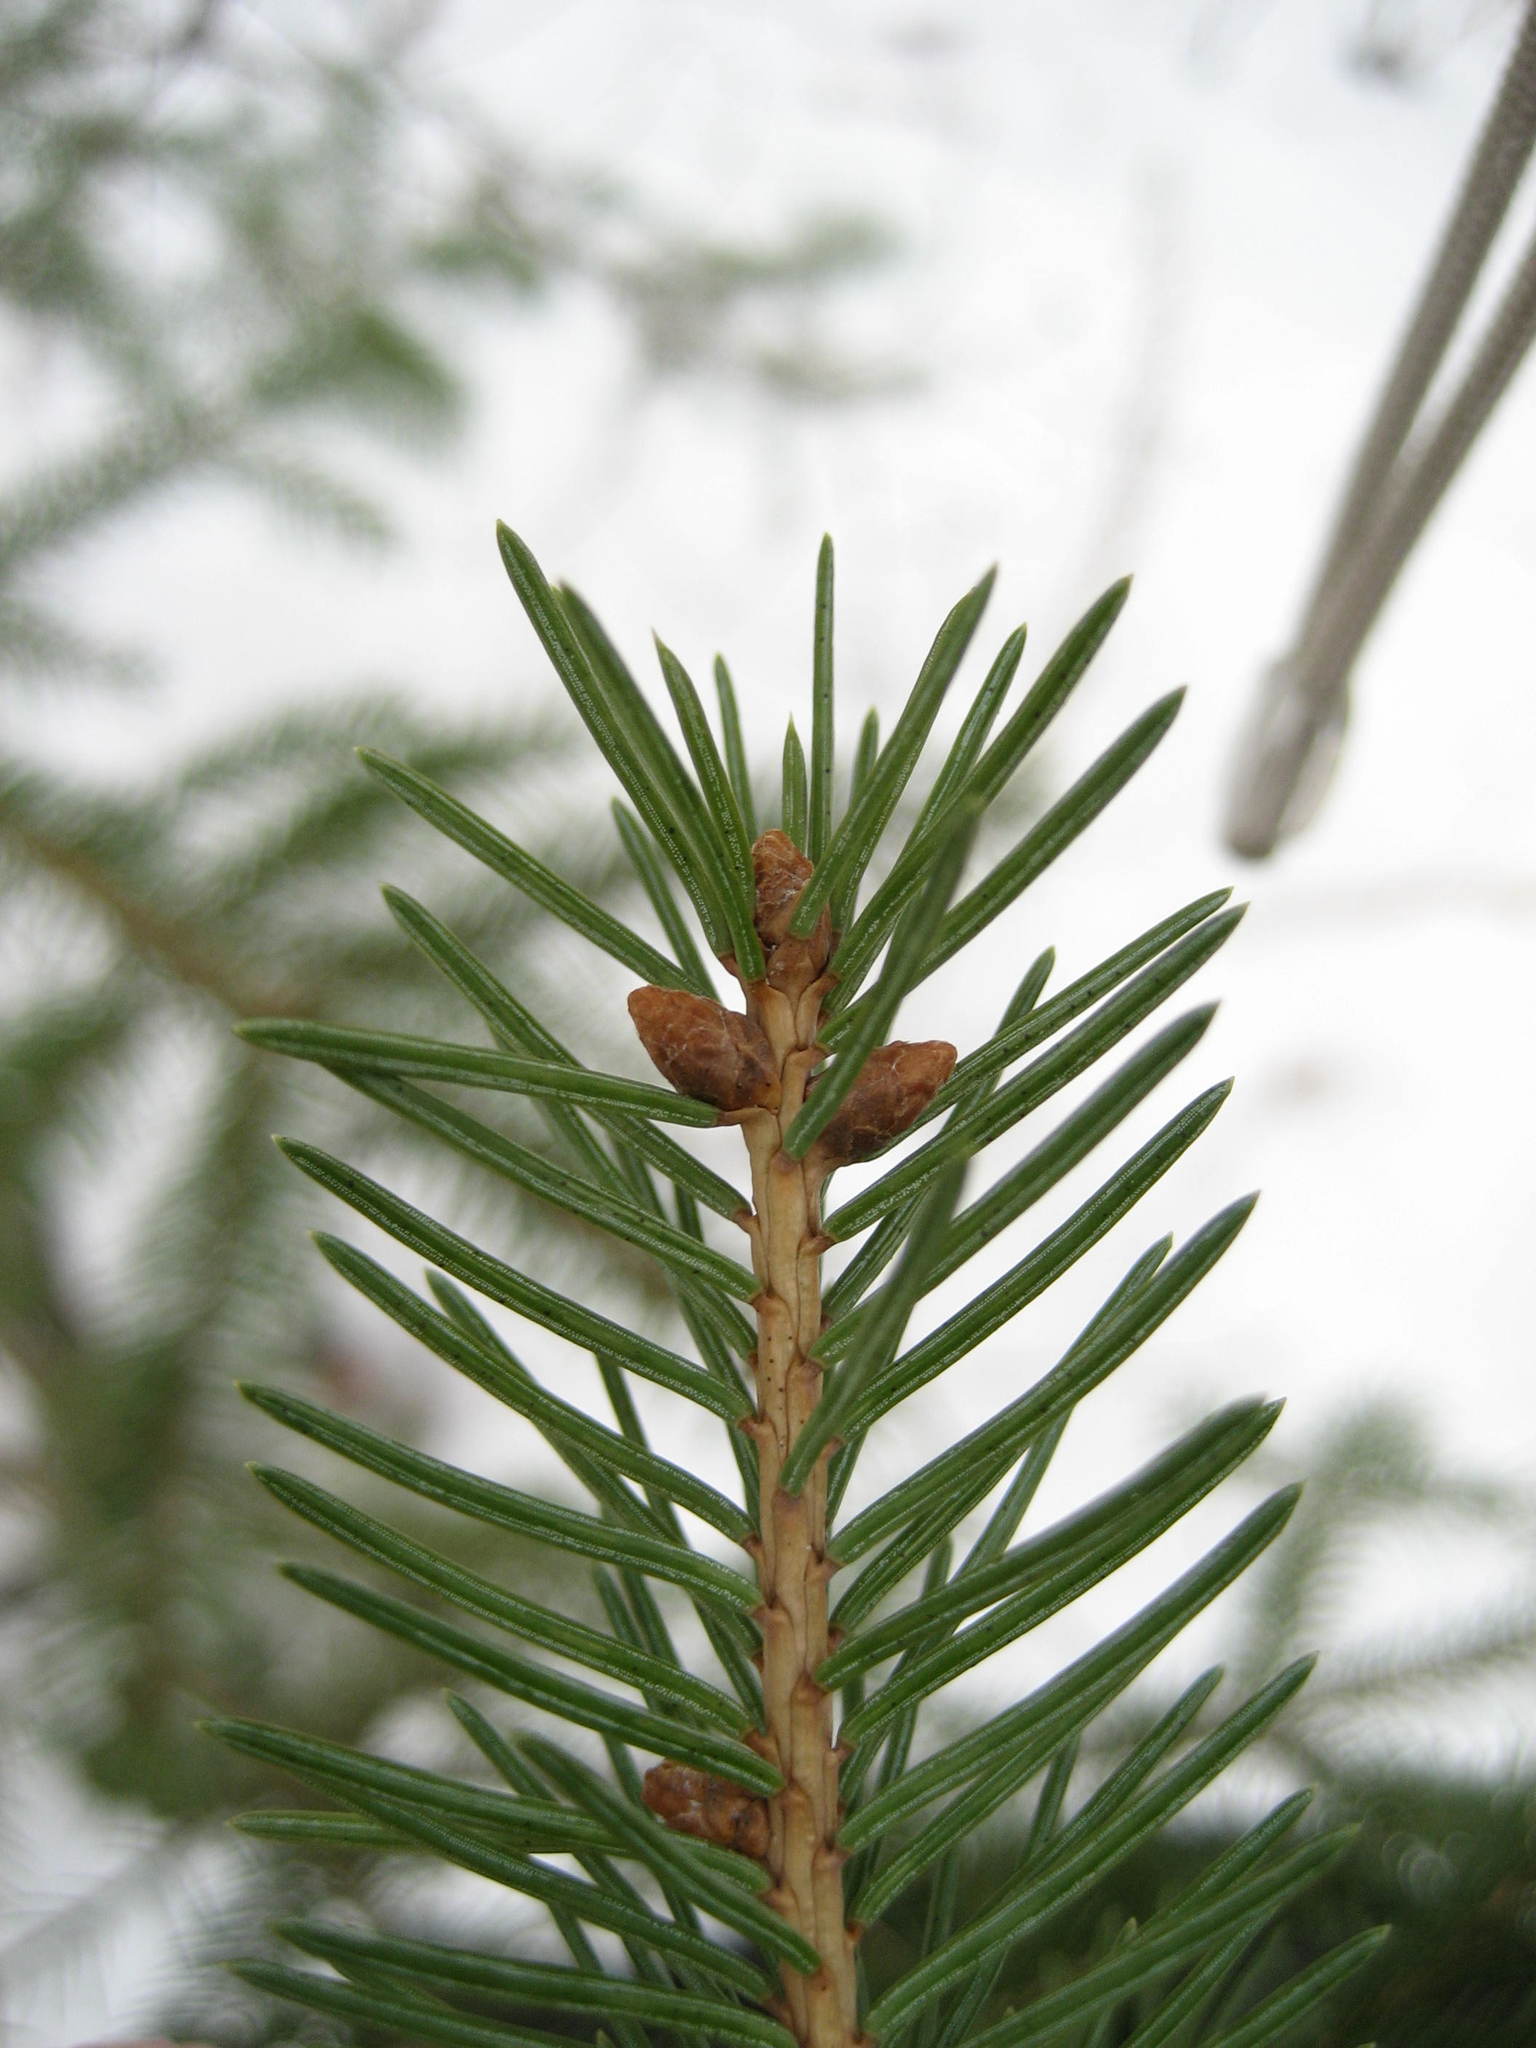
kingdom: Plantae
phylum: Tracheophyta
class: Pinopsida
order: Pinales
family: Pinaceae
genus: Picea
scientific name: Picea glauca
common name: White spruce
